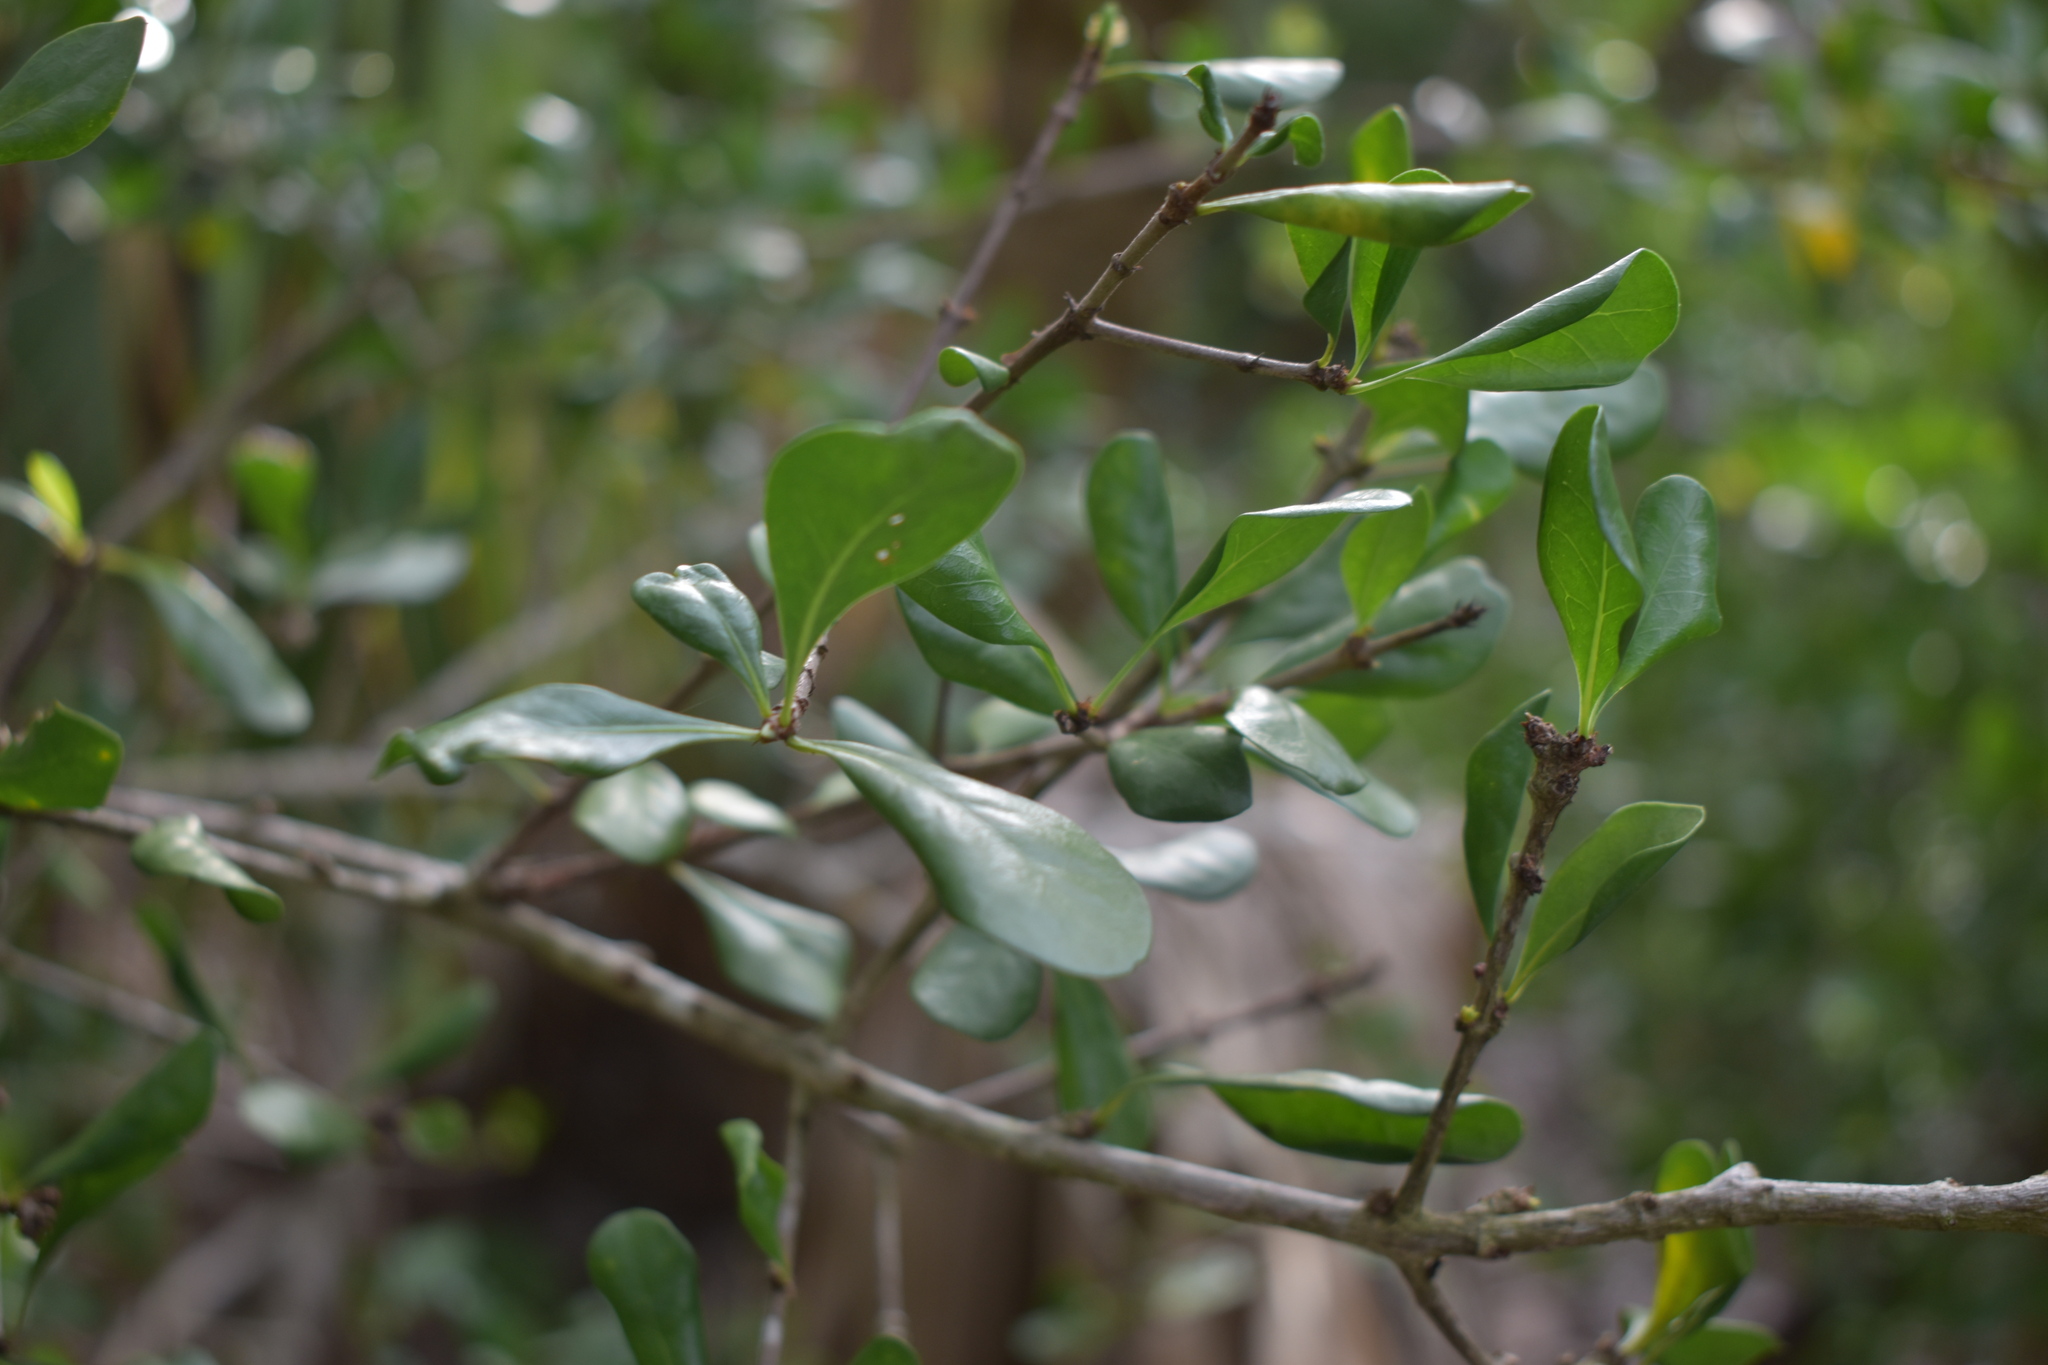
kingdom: Plantae
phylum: Tracheophyta
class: Magnoliopsida
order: Gentianales
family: Rubiaceae
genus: Randia
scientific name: Randia aculeata
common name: Inkberry
